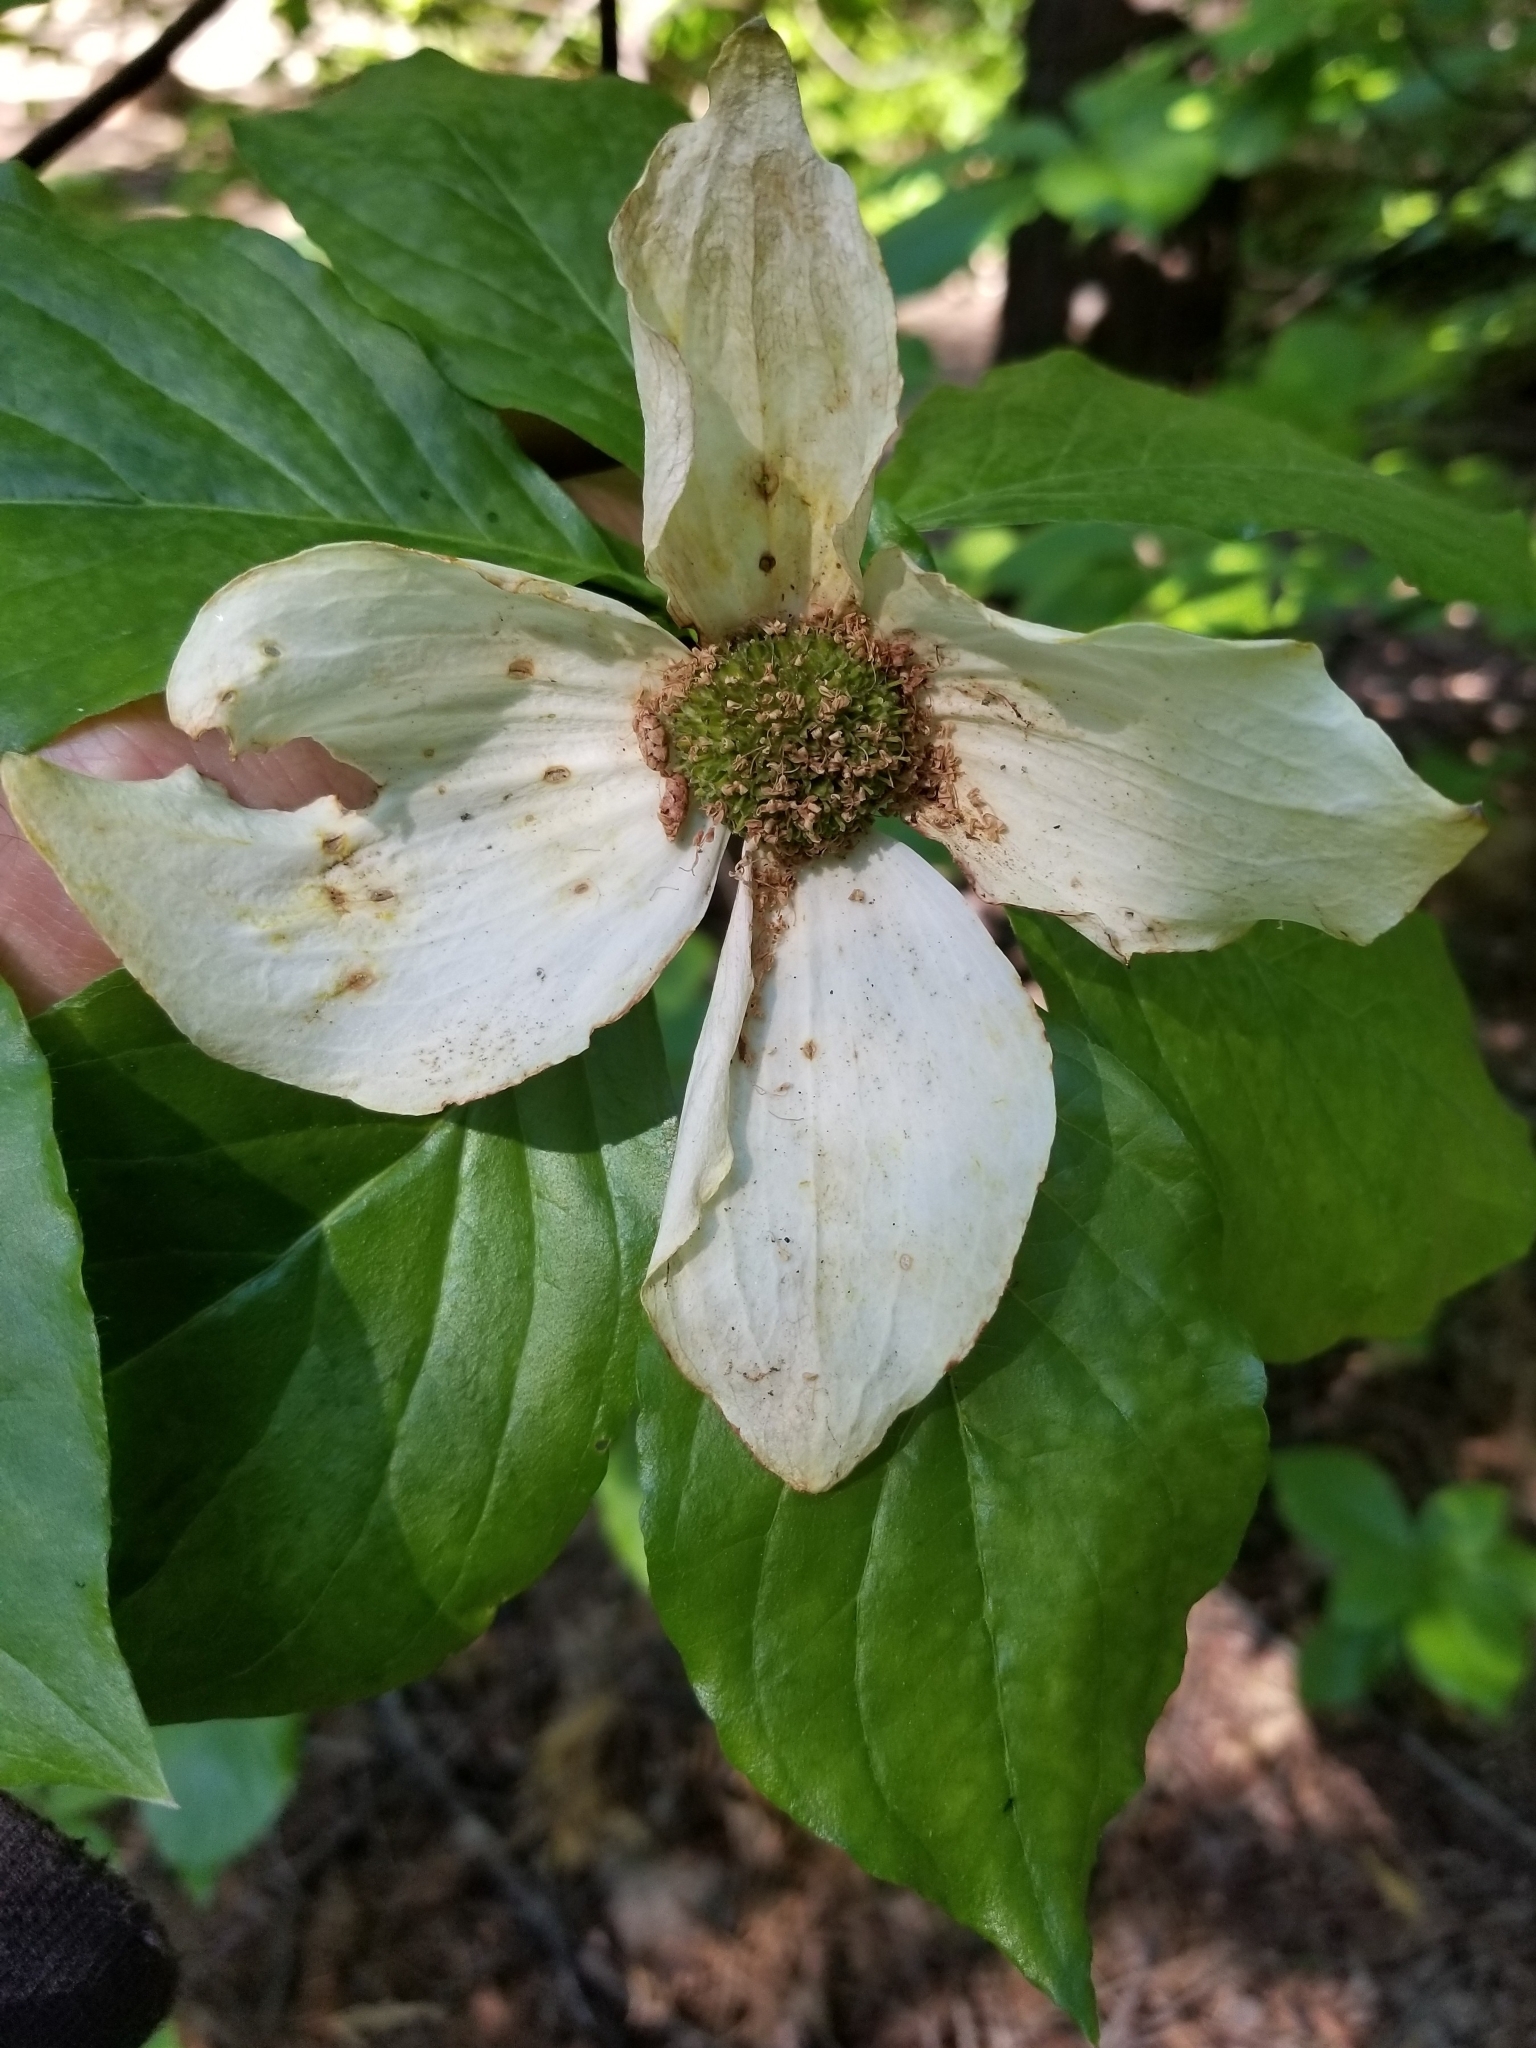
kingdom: Plantae
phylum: Tracheophyta
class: Magnoliopsida
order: Cornales
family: Cornaceae
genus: Cornus
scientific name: Cornus nuttallii
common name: Pacific dogwood
